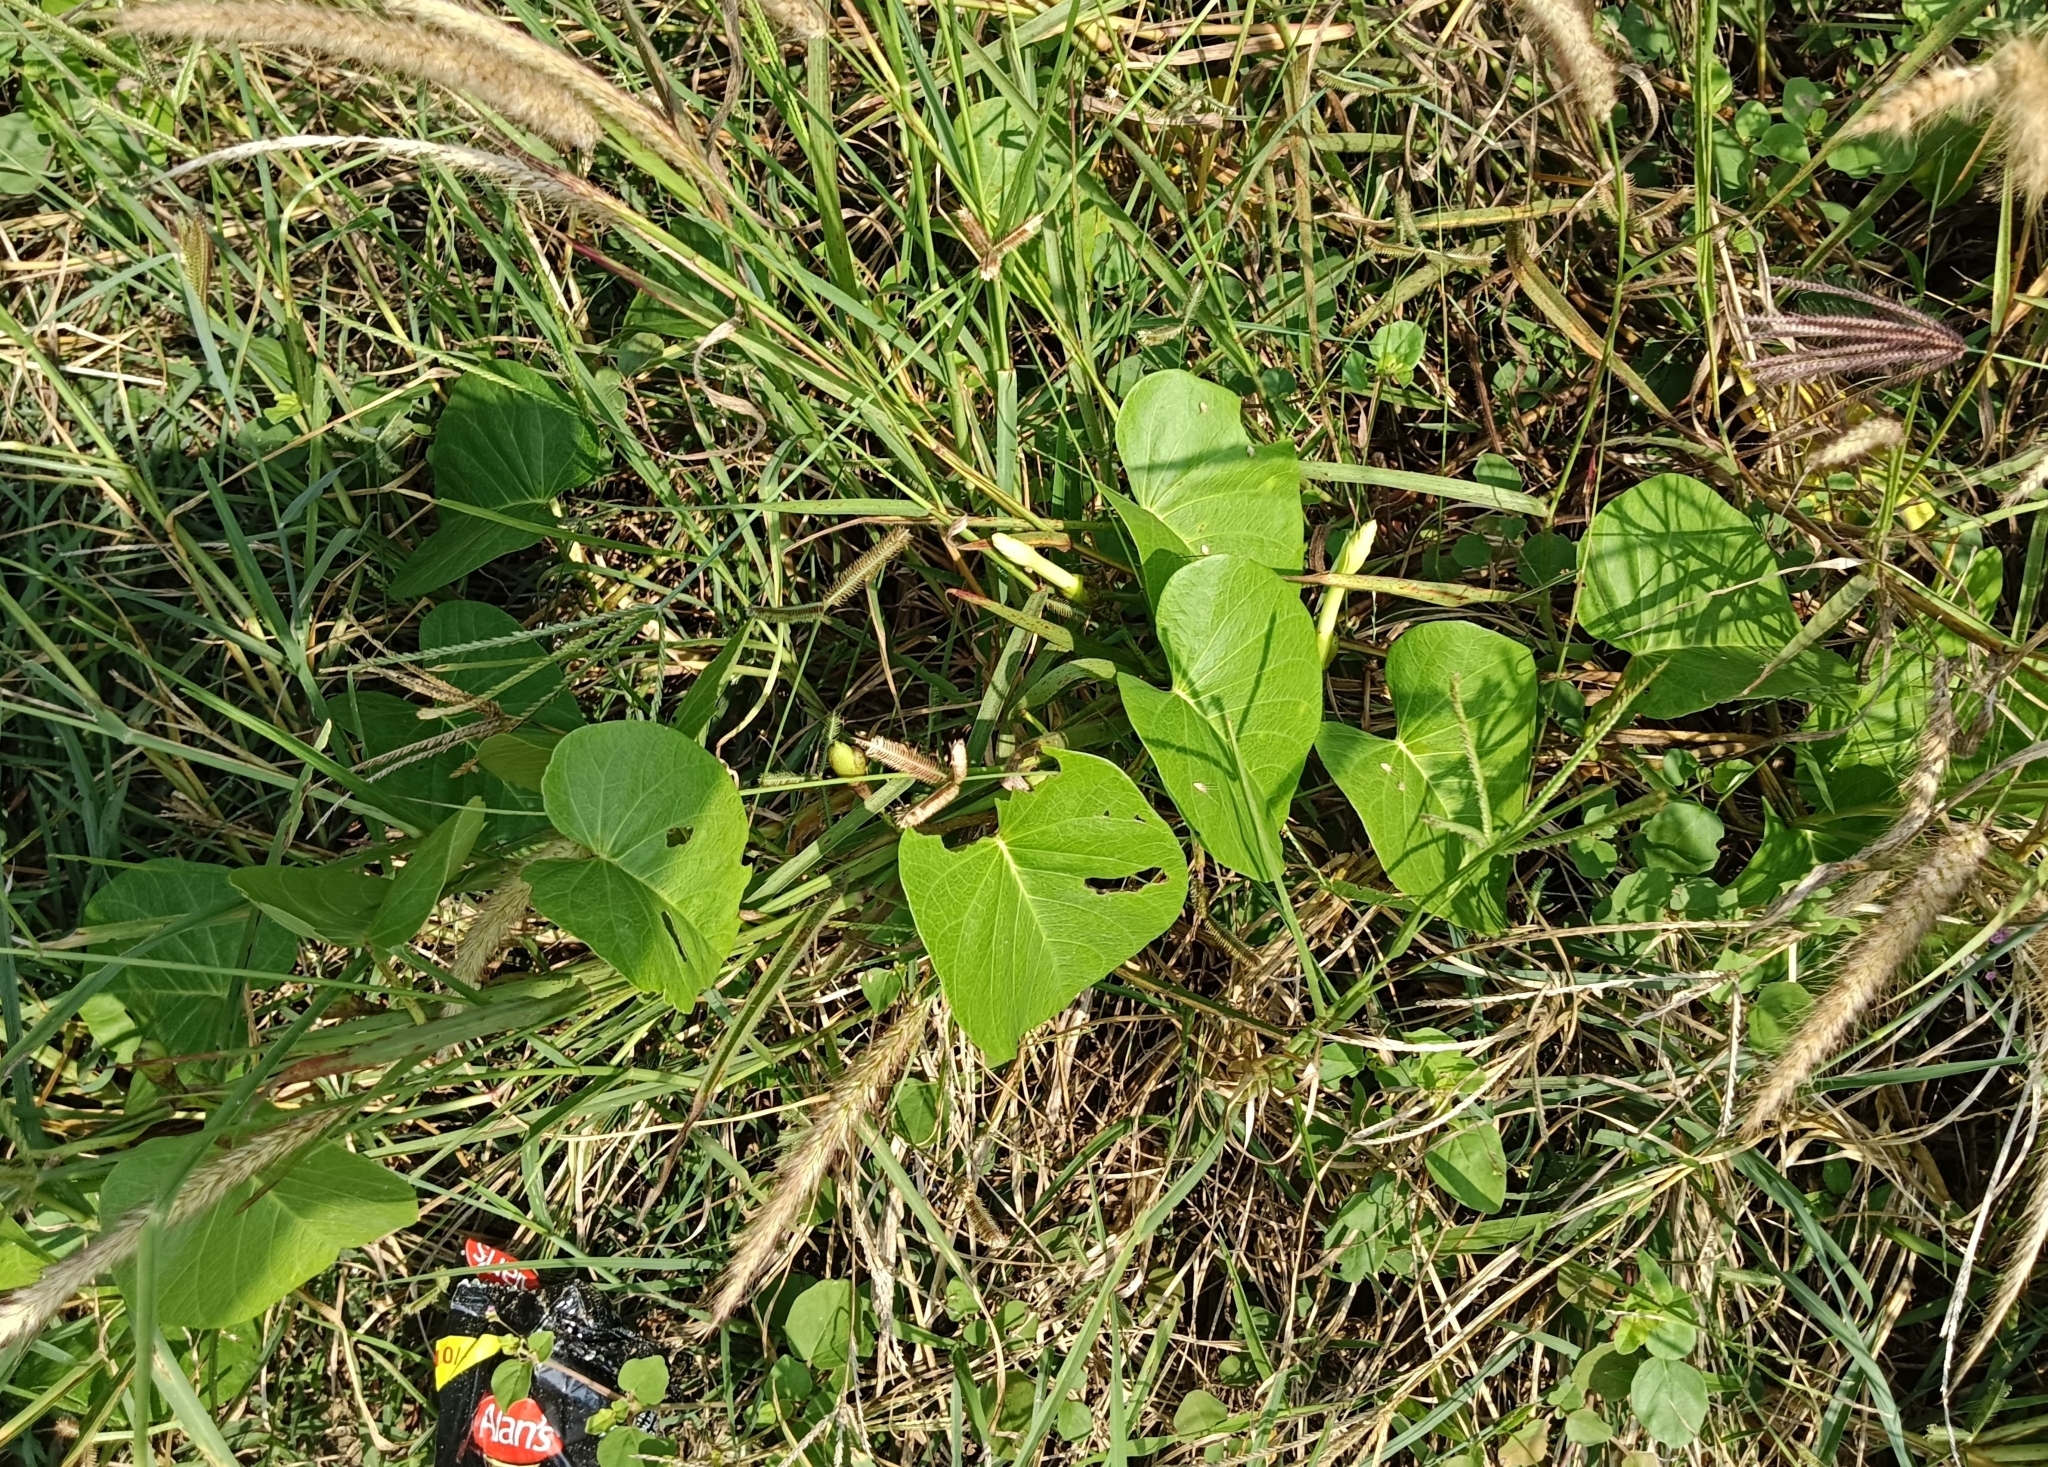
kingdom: Plantae
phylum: Tracheophyta
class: Magnoliopsida
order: Solanales
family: Convolvulaceae
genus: Ipomoea
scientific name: Ipomoea violacea
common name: Beach moonflower
